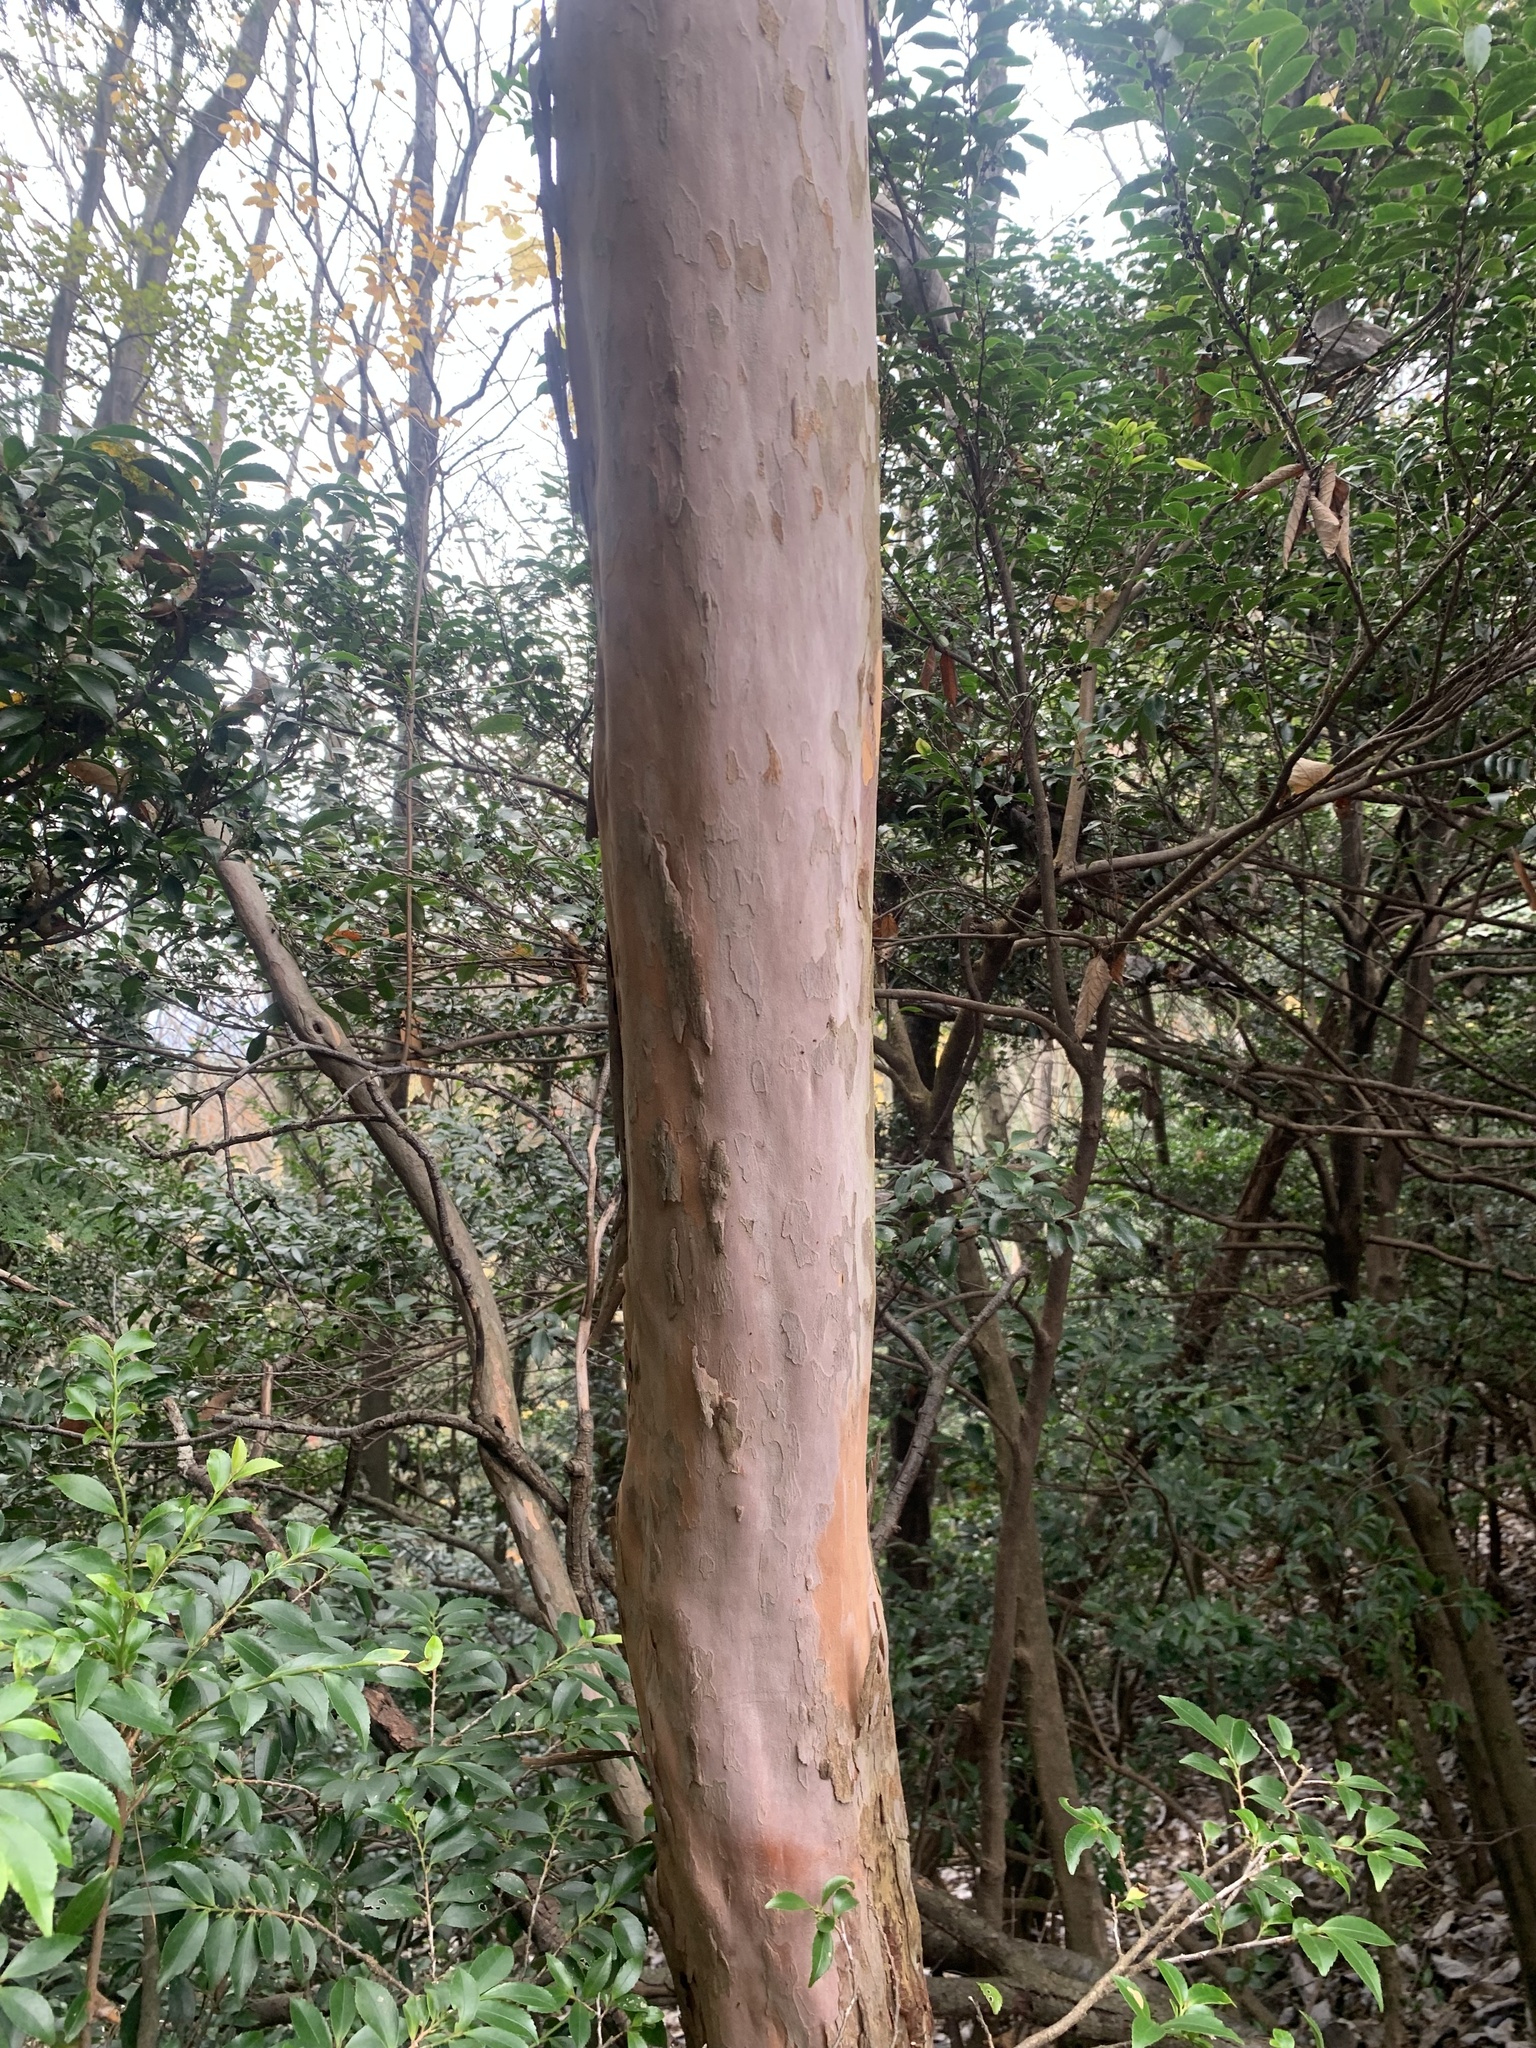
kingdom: Plantae
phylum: Tracheophyta
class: Magnoliopsida
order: Ericales
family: Clethraceae
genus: Clethra
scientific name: Clethra barbinervis
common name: Japanese clethra
